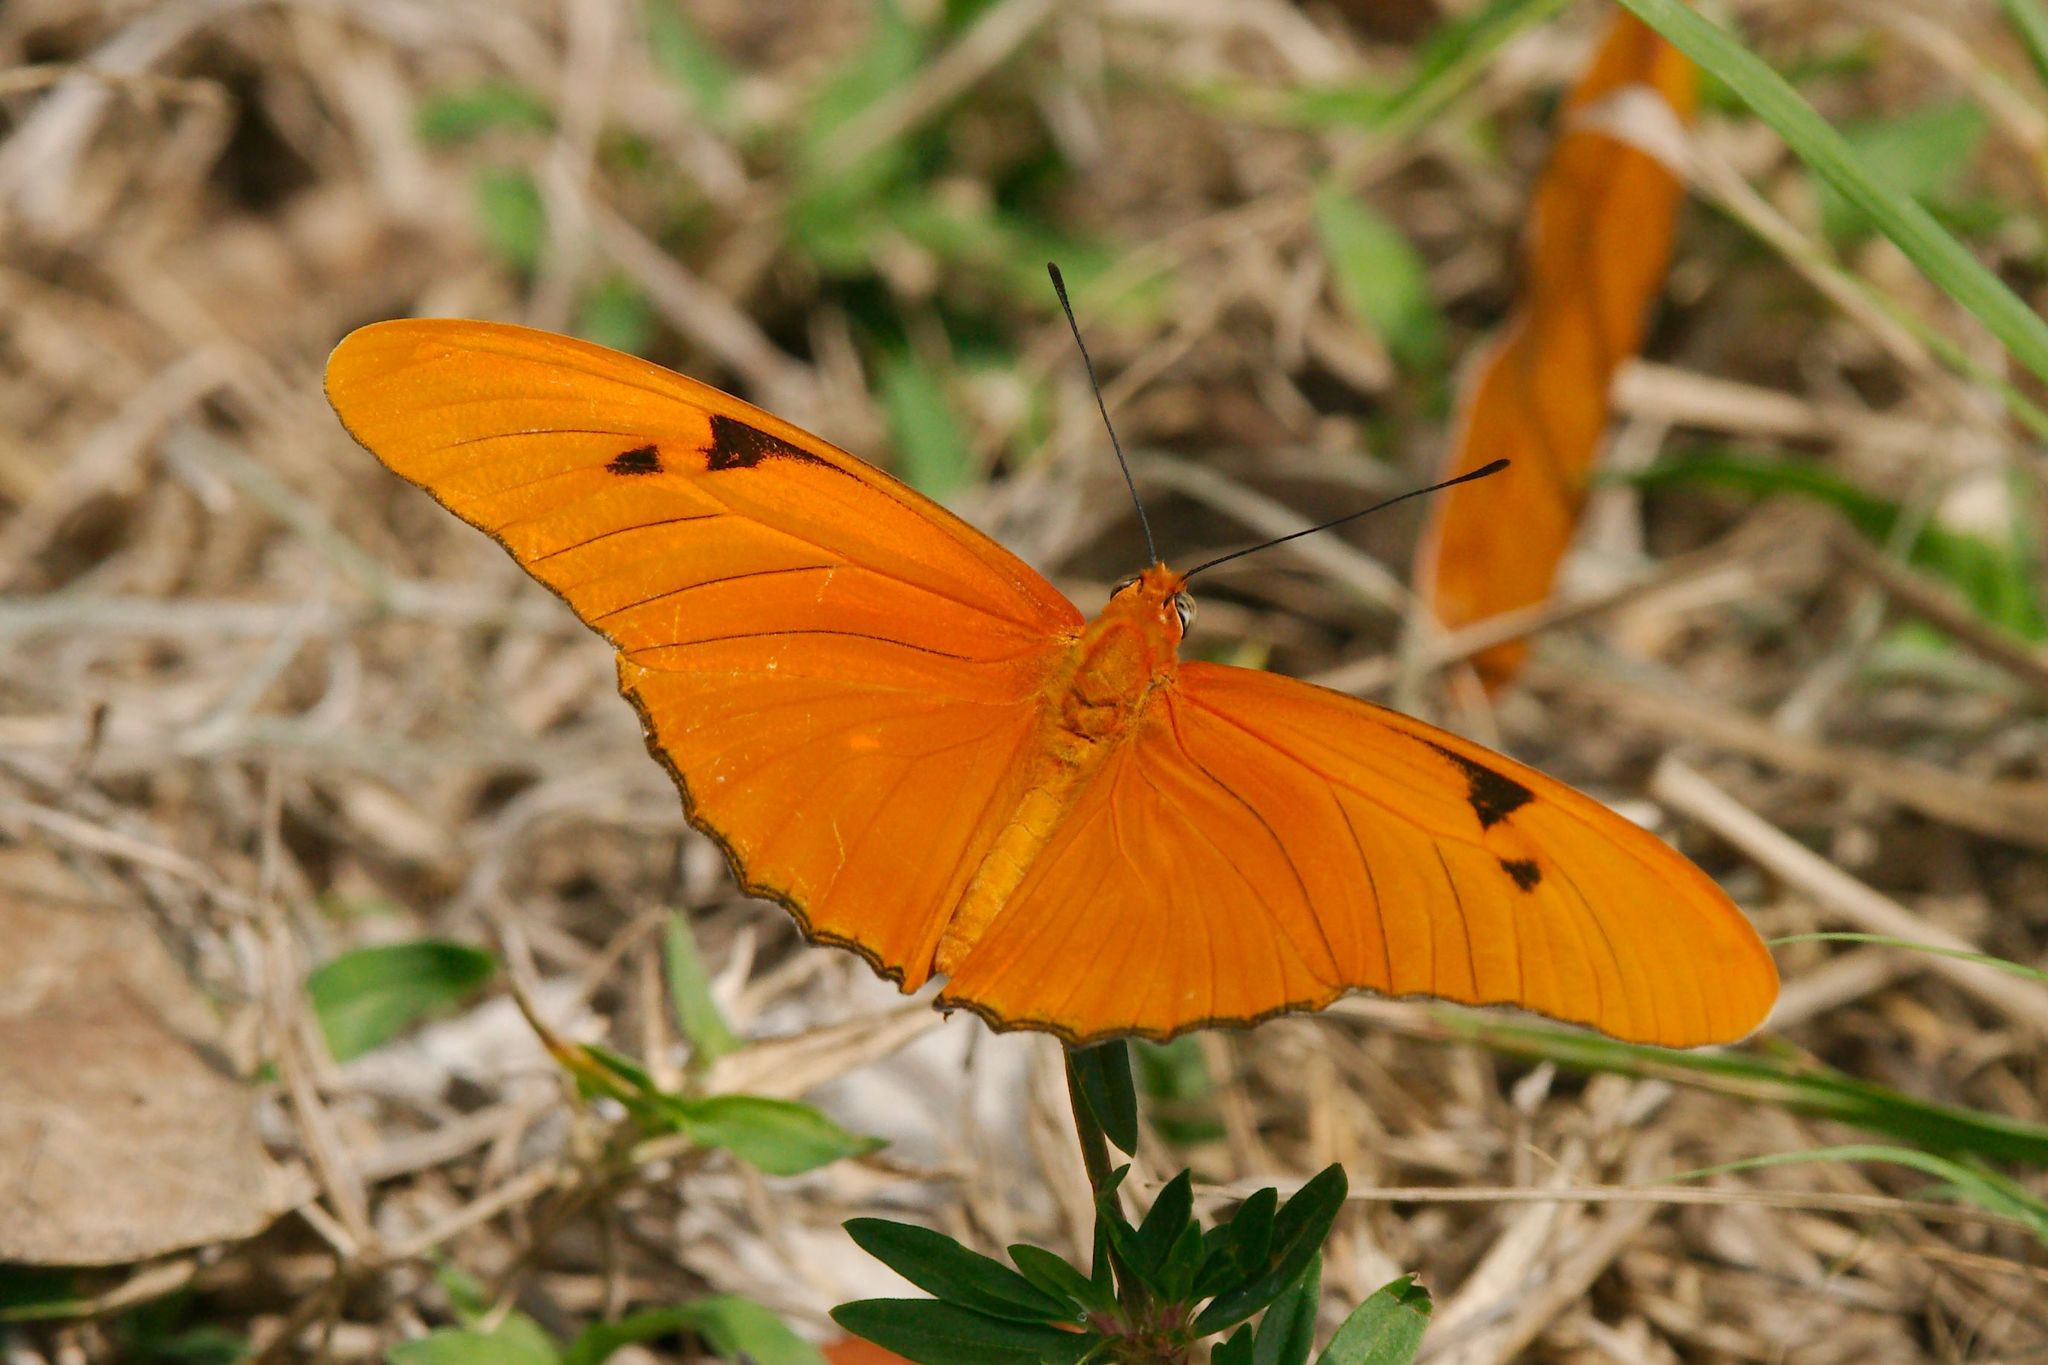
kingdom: Animalia
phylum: Arthropoda
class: Insecta
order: Lepidoptera
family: Nymphalidae
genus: Dryas
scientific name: Dryas iulia
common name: Flambeau
